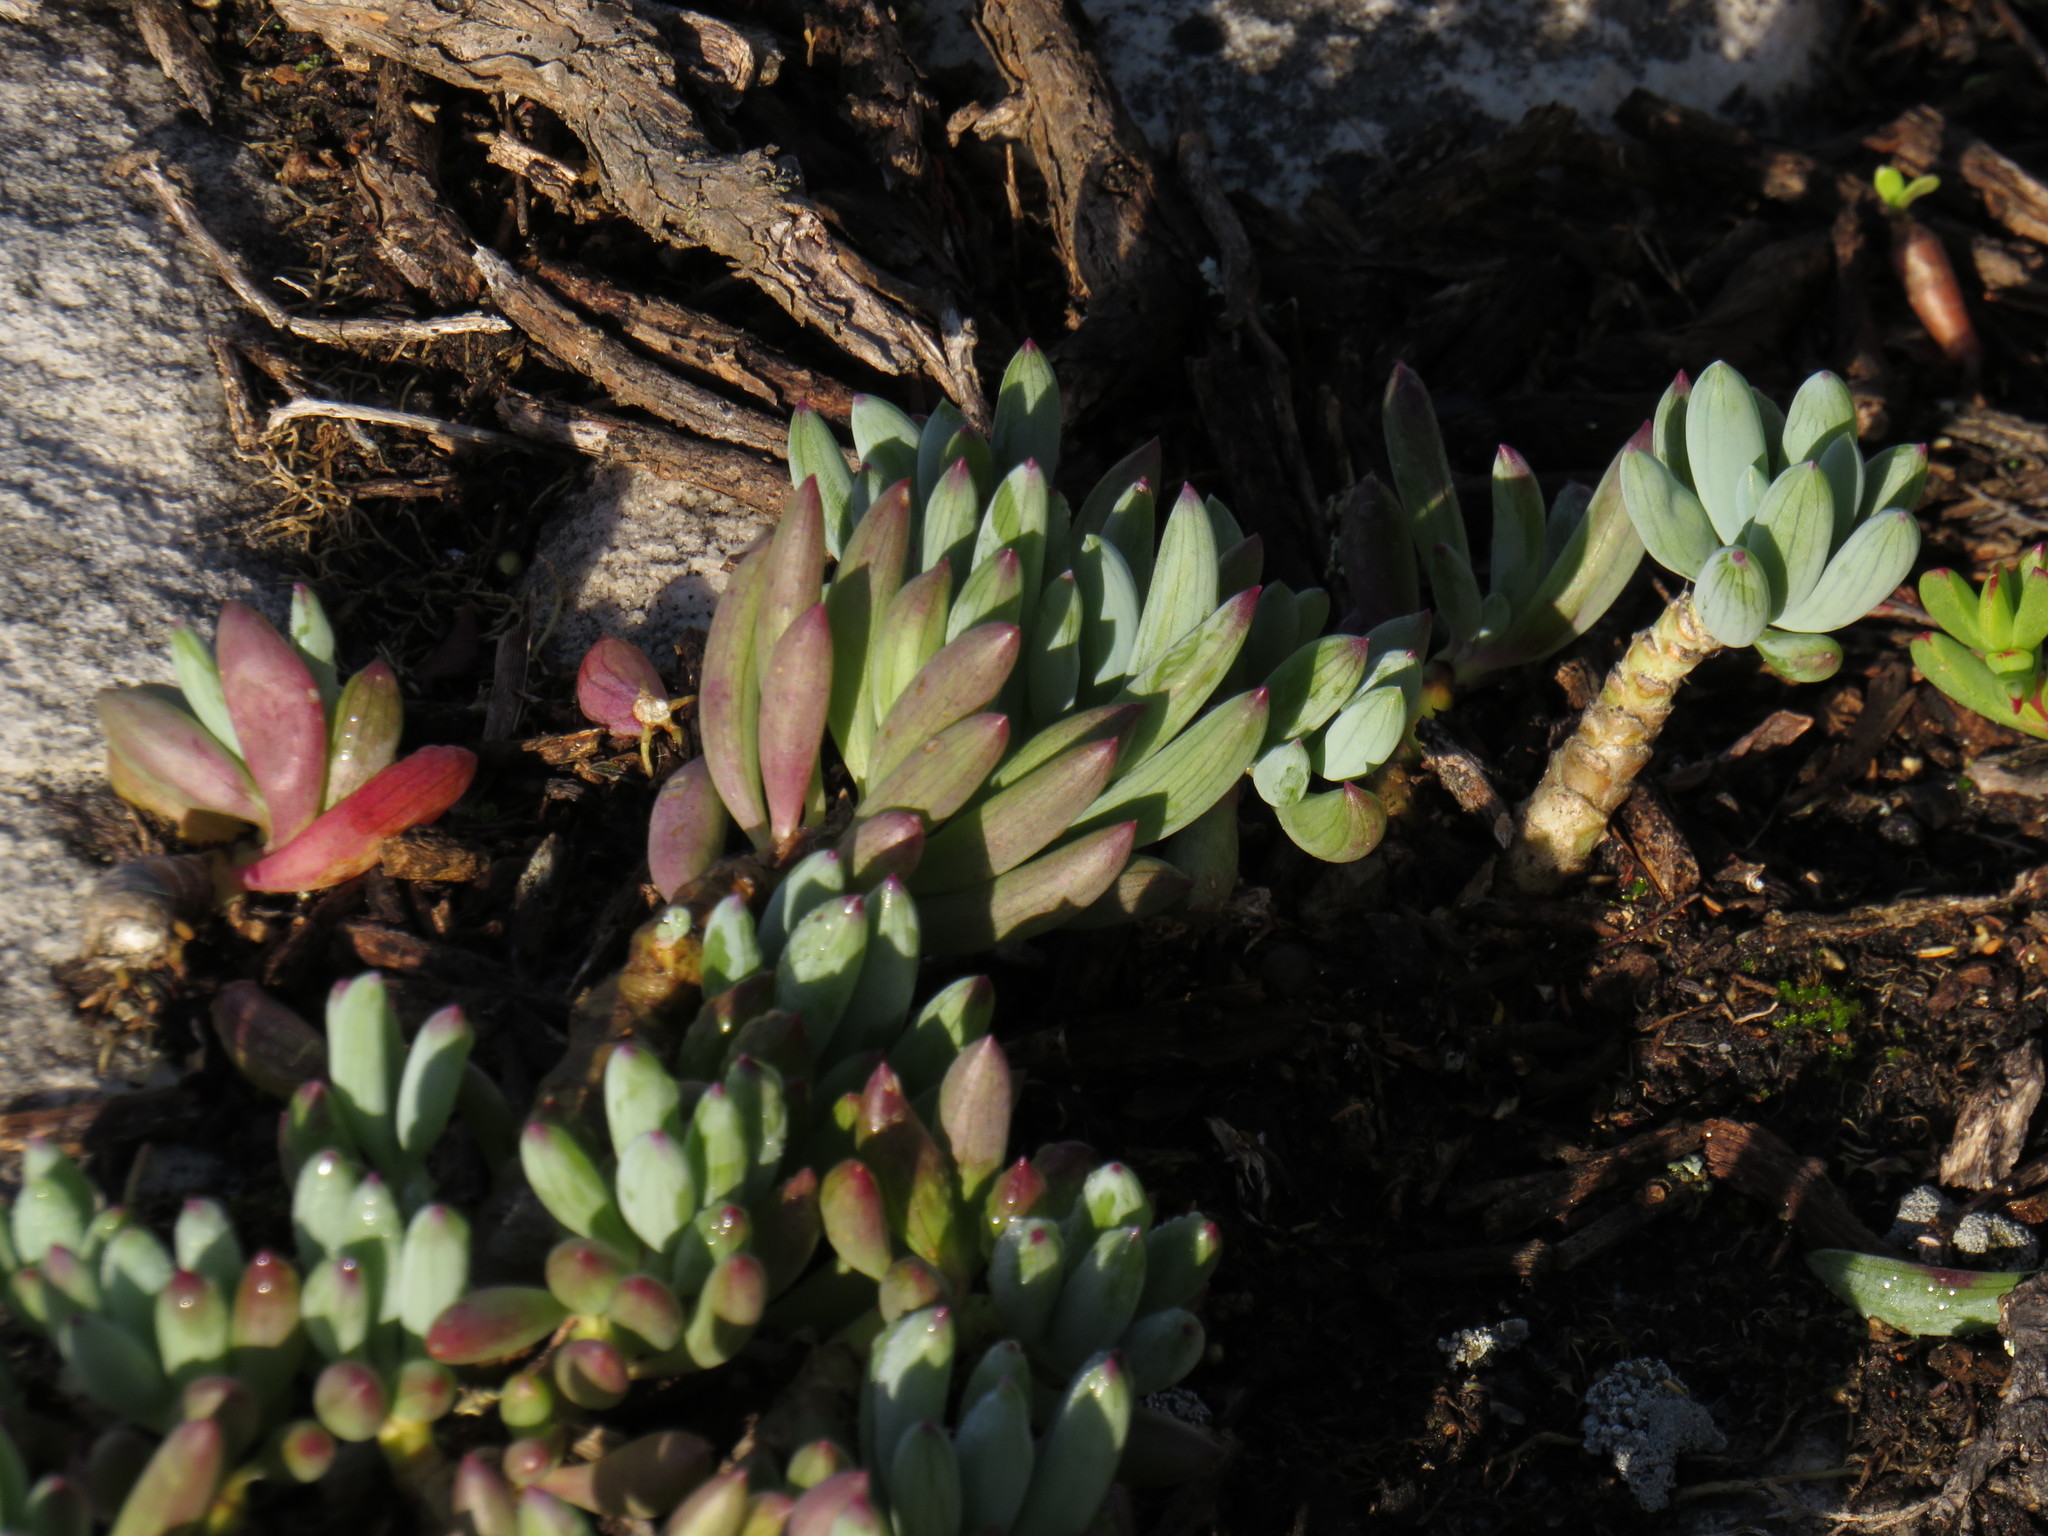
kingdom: Plantae
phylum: Tracheophyta
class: Magnoliopsida
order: Asterales
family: Asteraceae
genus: Curio
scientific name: Curio crassulifolius
